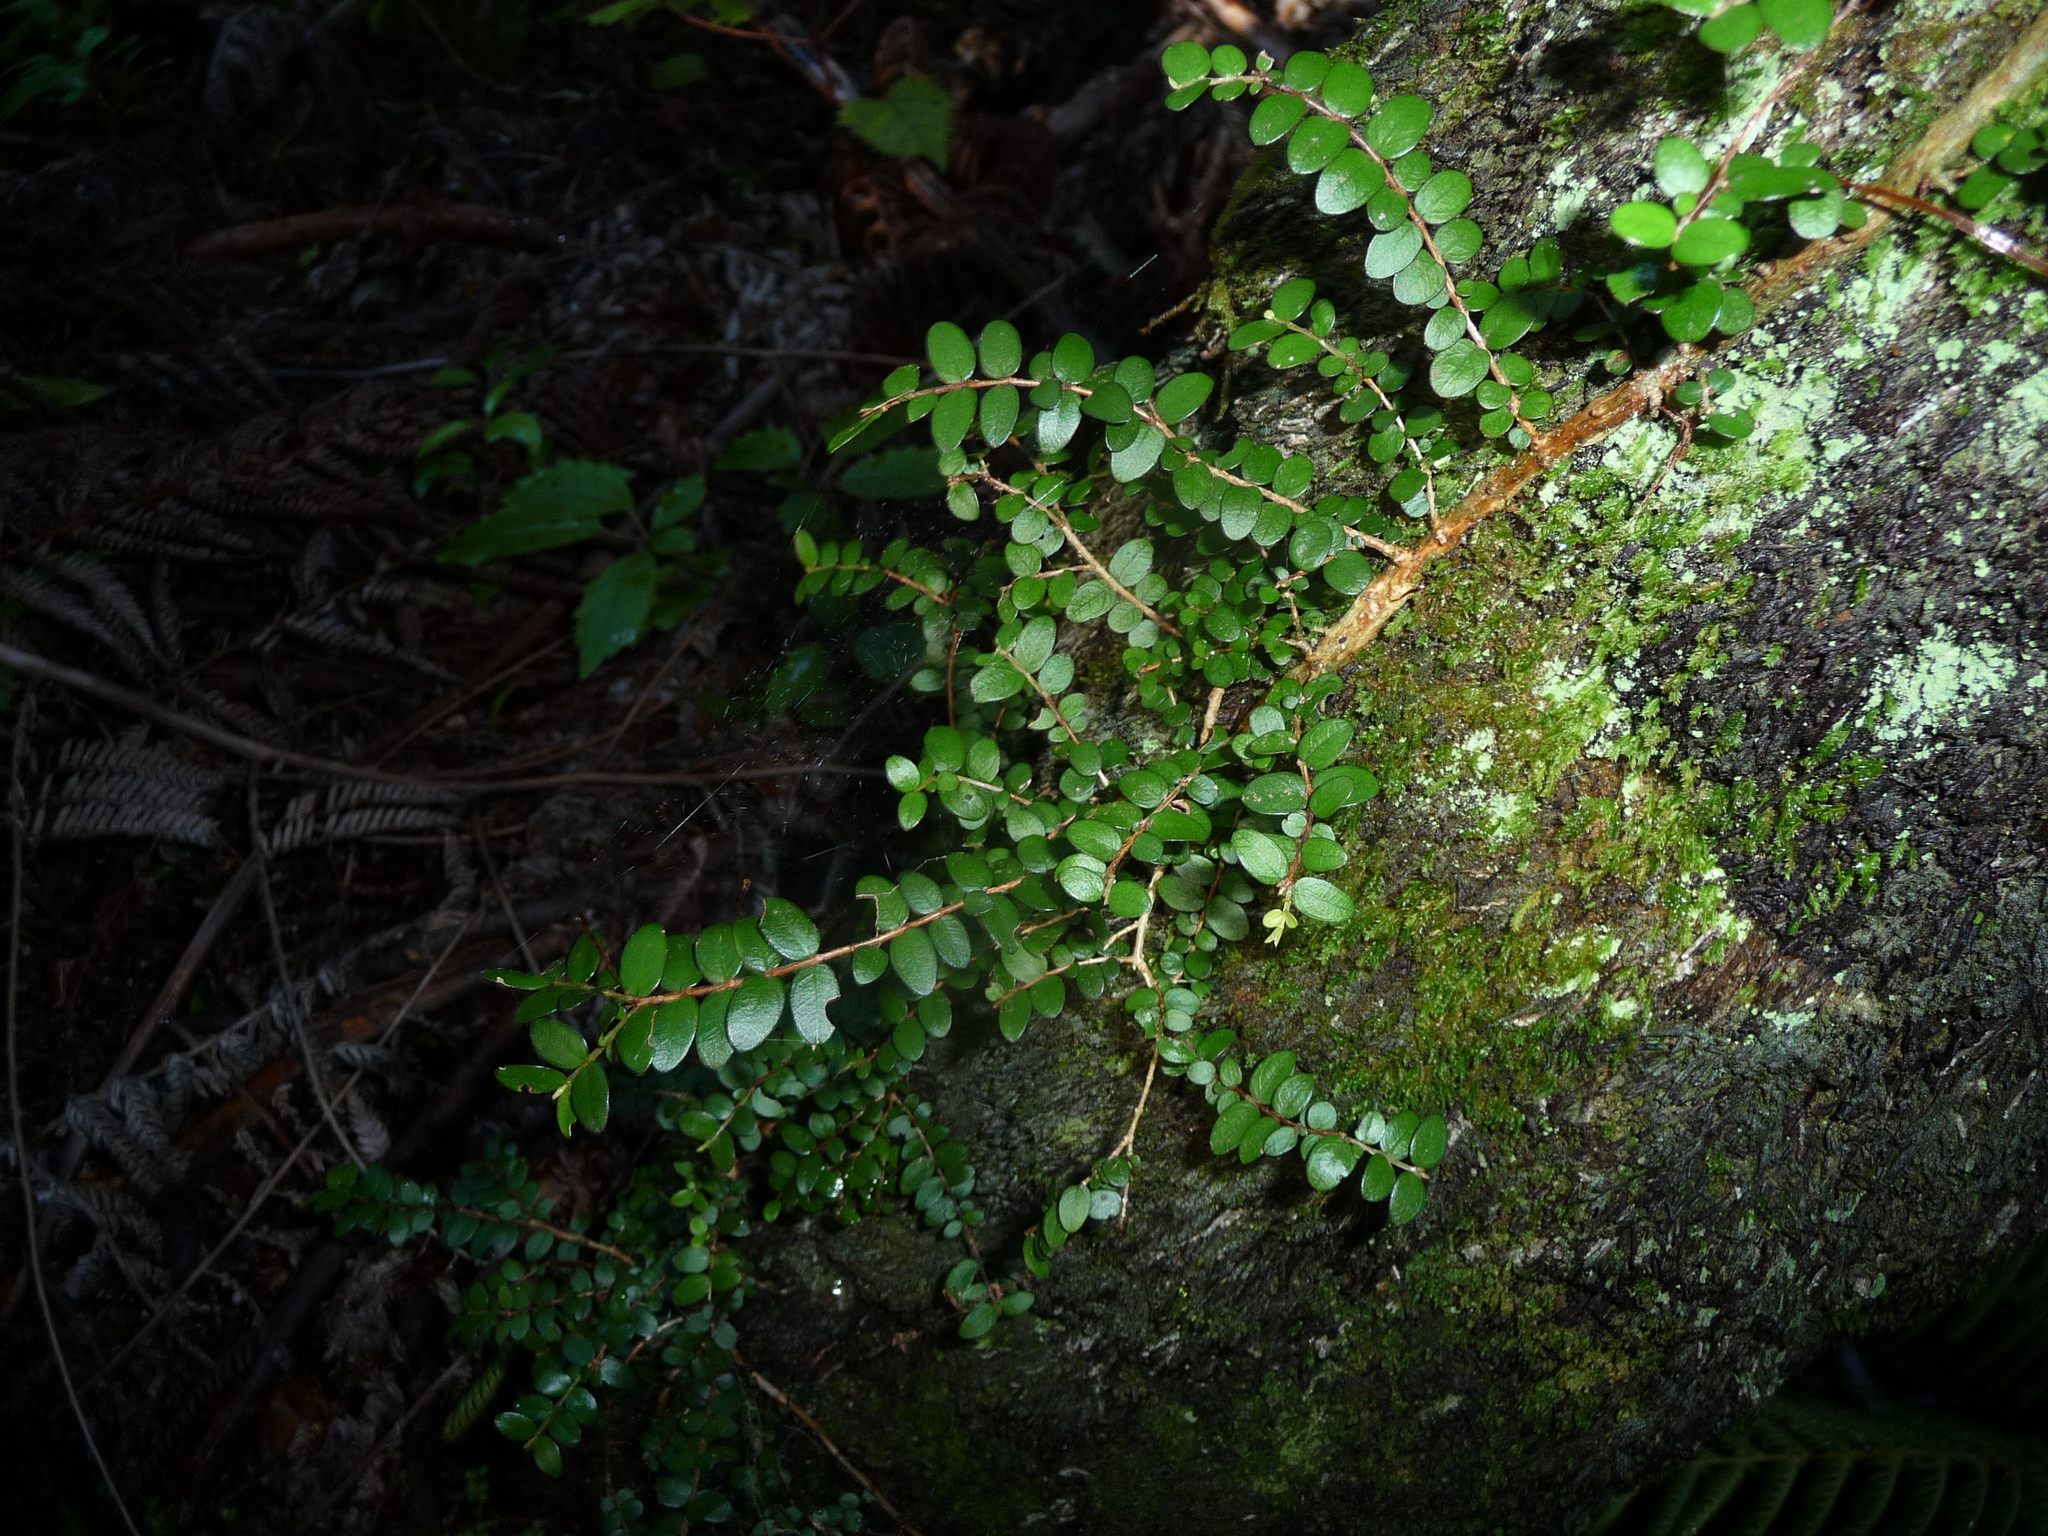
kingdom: Plantae
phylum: Tracheophyta
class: Magnoliopsida
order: Myrtales
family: Myrtaceae
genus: Metrosideros
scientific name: Metrosideros diffusa
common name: Small ratavine
